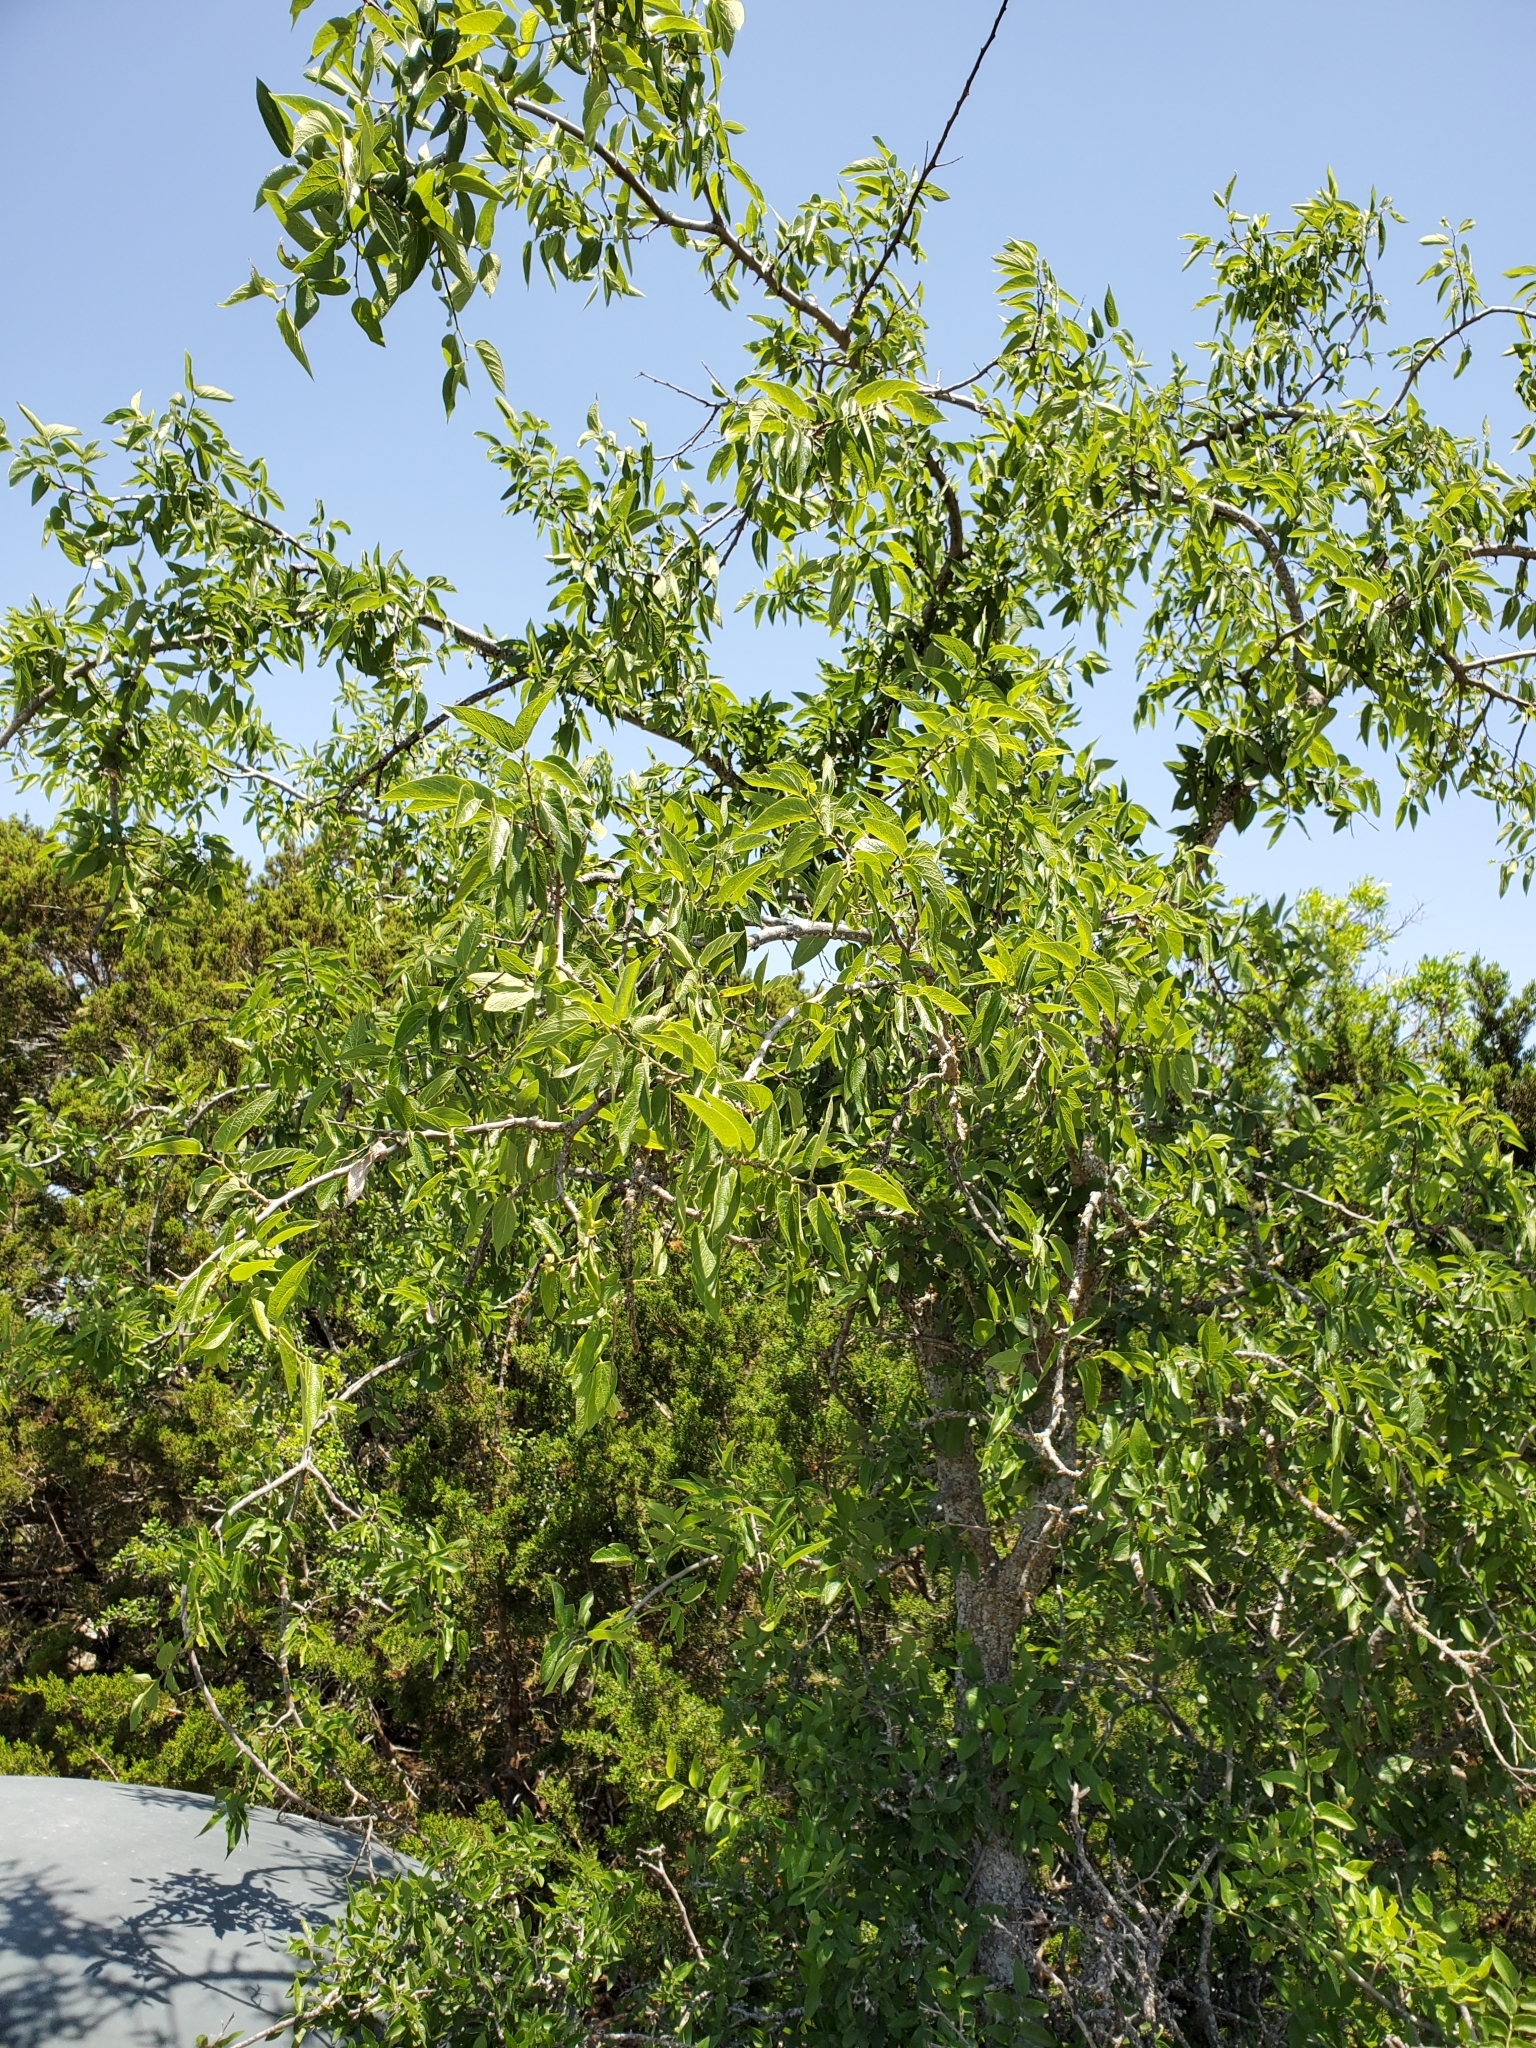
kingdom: Plantae
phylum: Tracheophyta
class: Magnoliopsida
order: Rosales
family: Cannabaceae
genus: Celtis
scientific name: Celtis reticulata
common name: Netleaf hackberry
